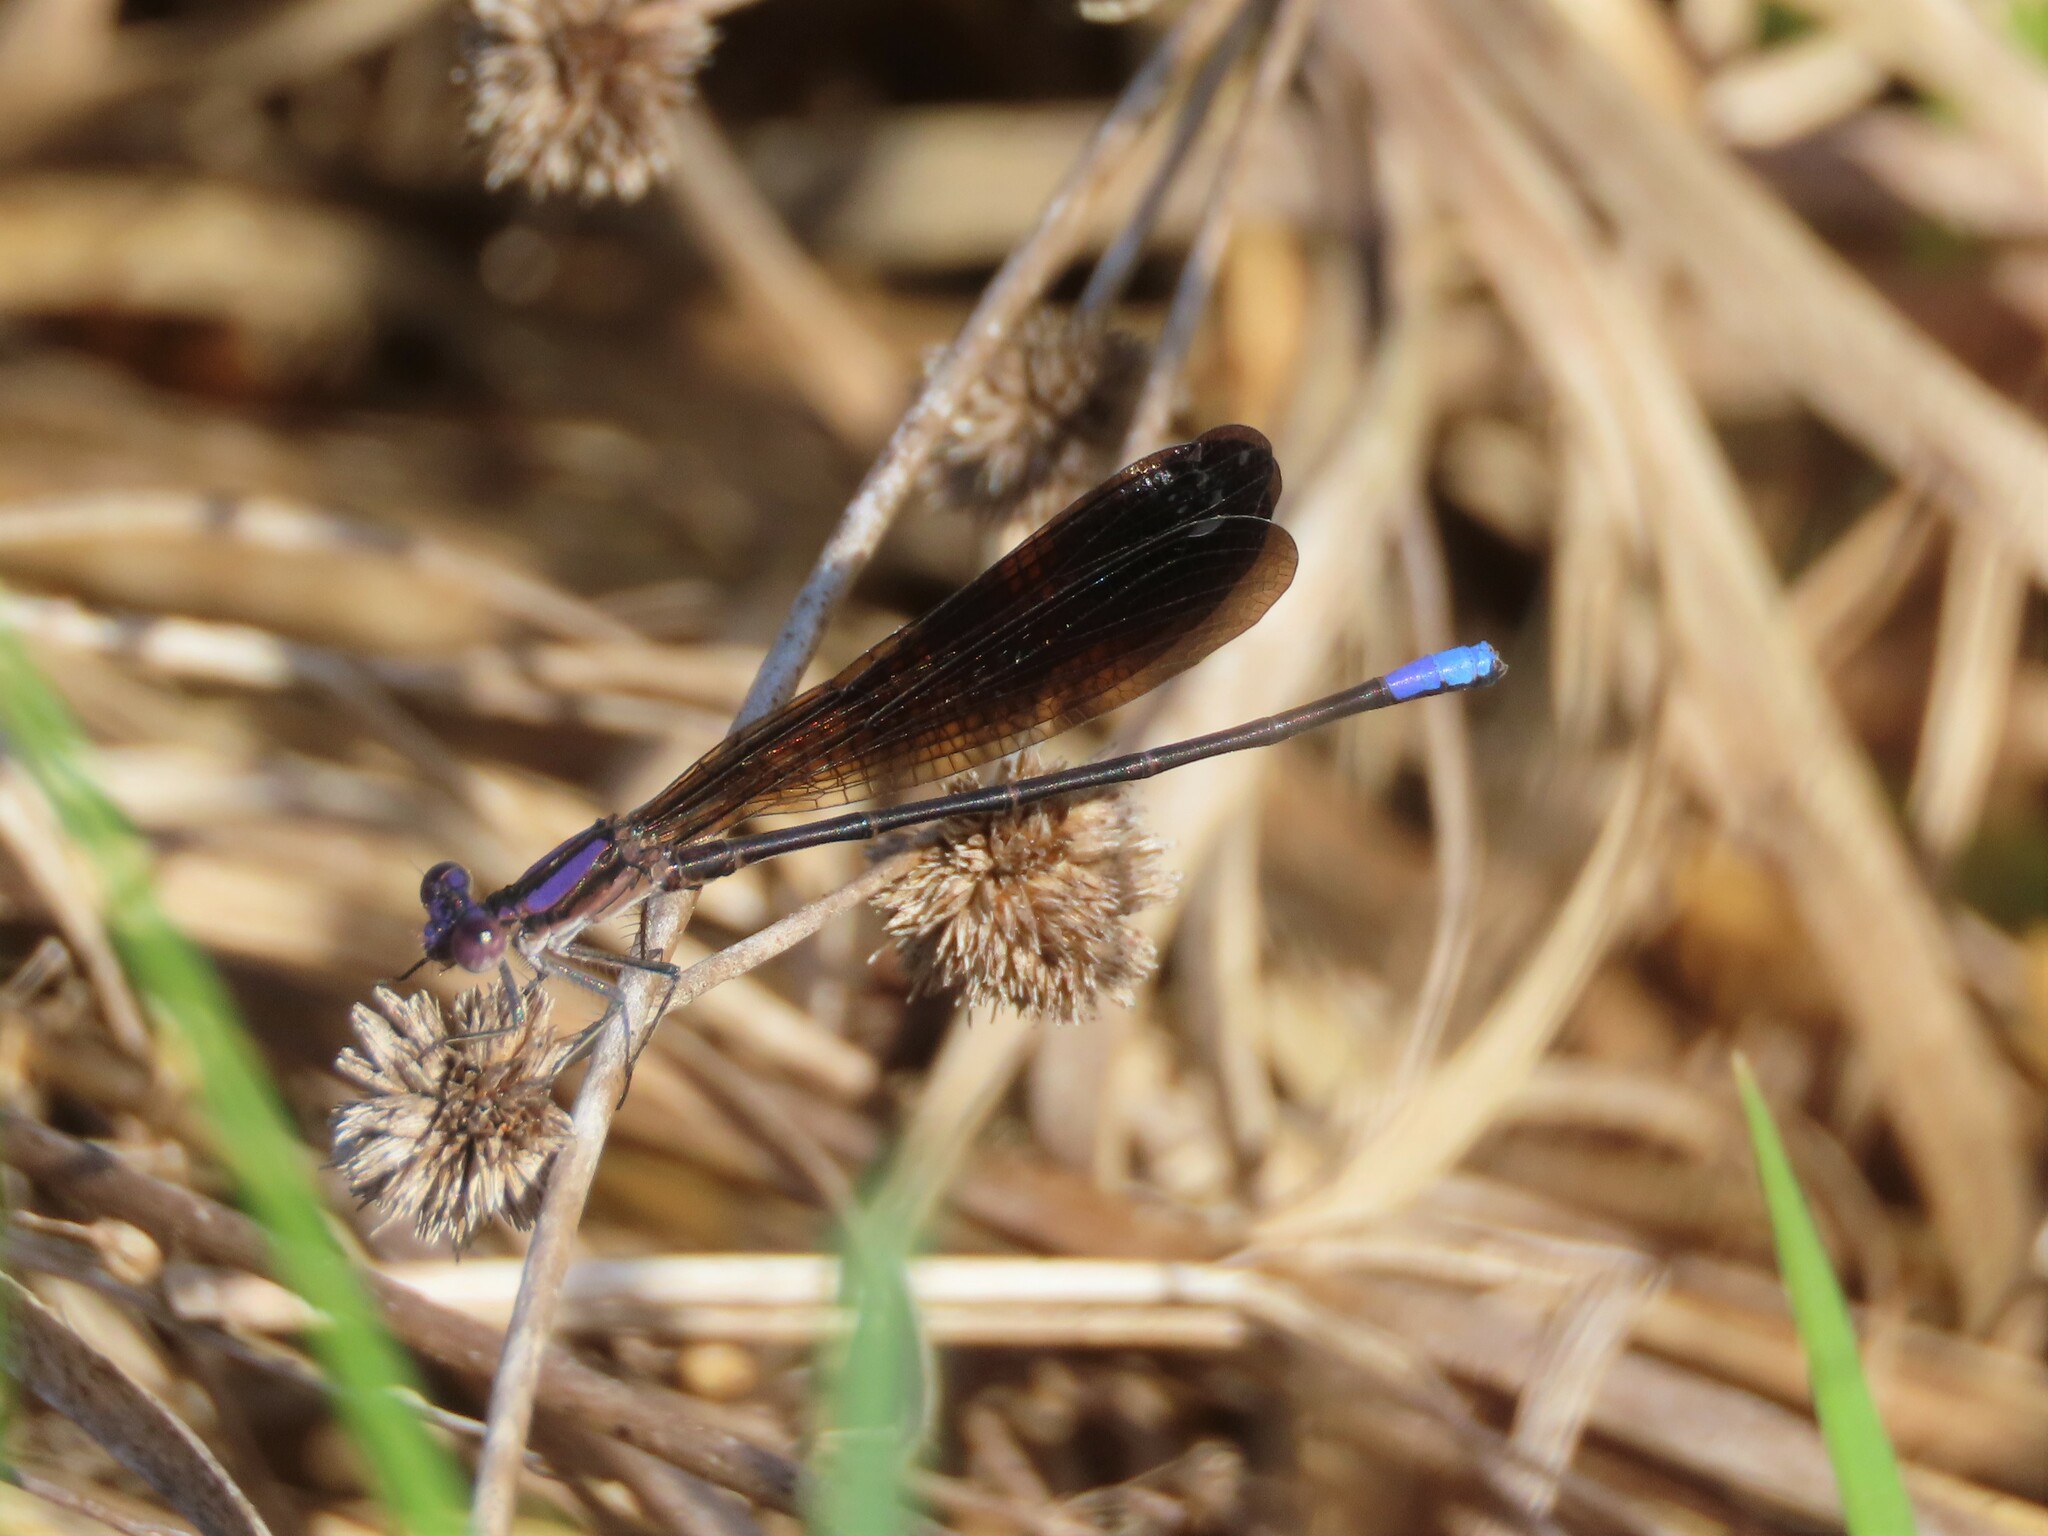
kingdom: Animalia
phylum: Arthropoda
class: Insecta
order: Odonata
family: Coenagrionidae
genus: Argia
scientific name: Argia fumipennis
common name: Variable dancer
